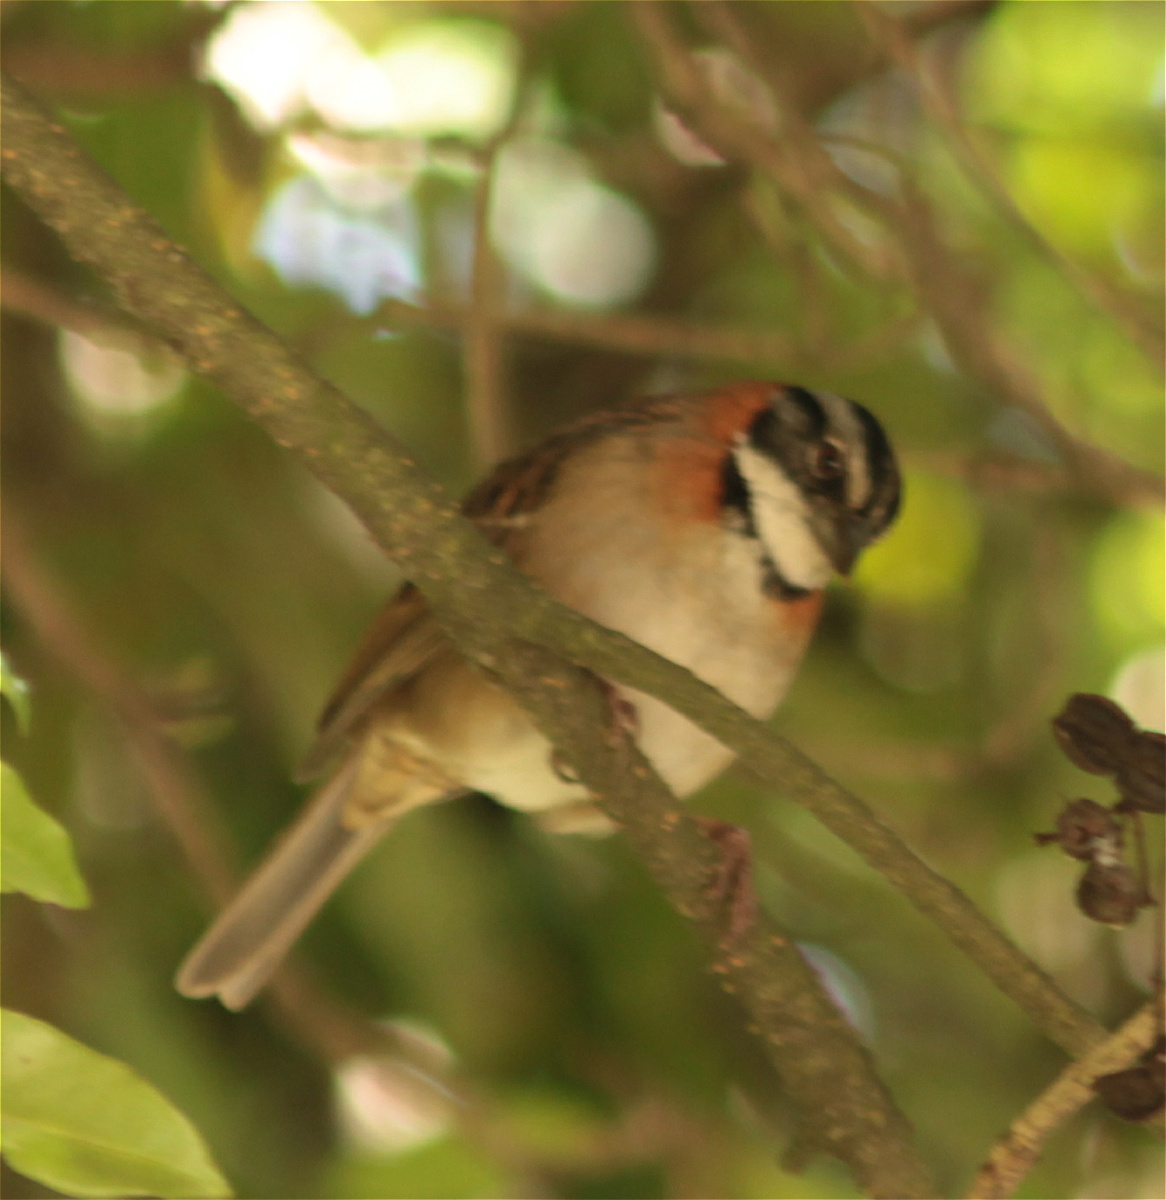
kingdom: Animalia
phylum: Chordata
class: Aves
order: Passeriformes
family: Passerellidae
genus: Zonotrichia
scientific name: Zonotrichia capensis
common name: Rufous-collared sparrow
